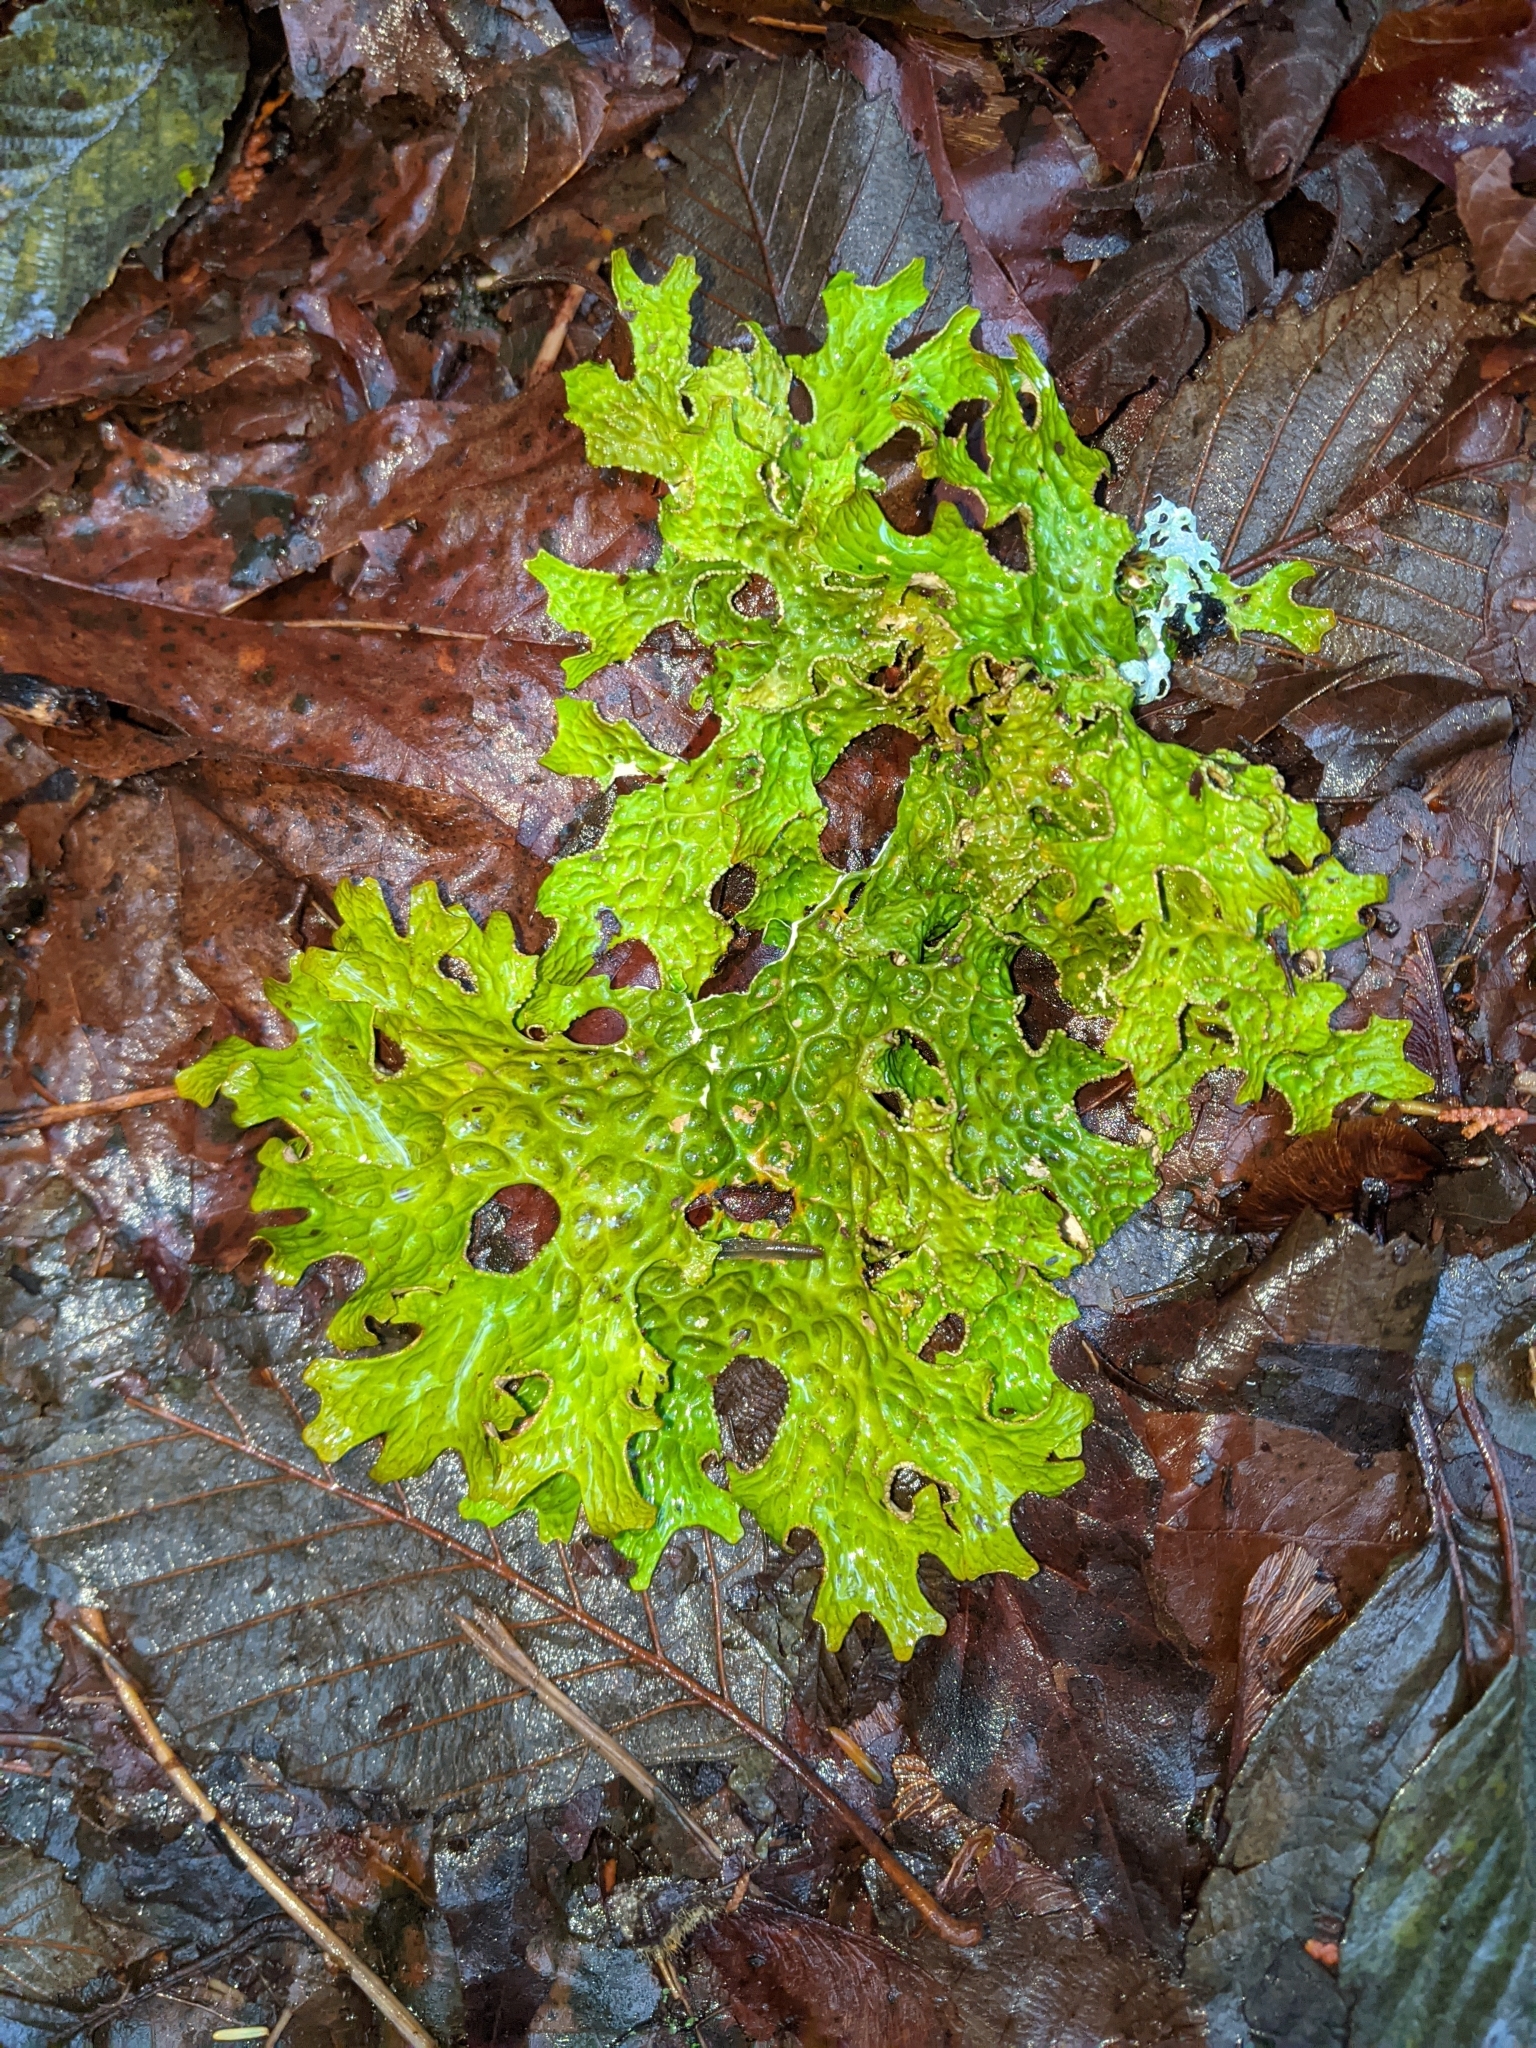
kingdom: Fungi
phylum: Ascomycota
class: Lecanoromycetes
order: Peltigerales
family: Lobariaceae
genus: Lobaria
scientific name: Lobaria pulmonaria
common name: Lungwort
